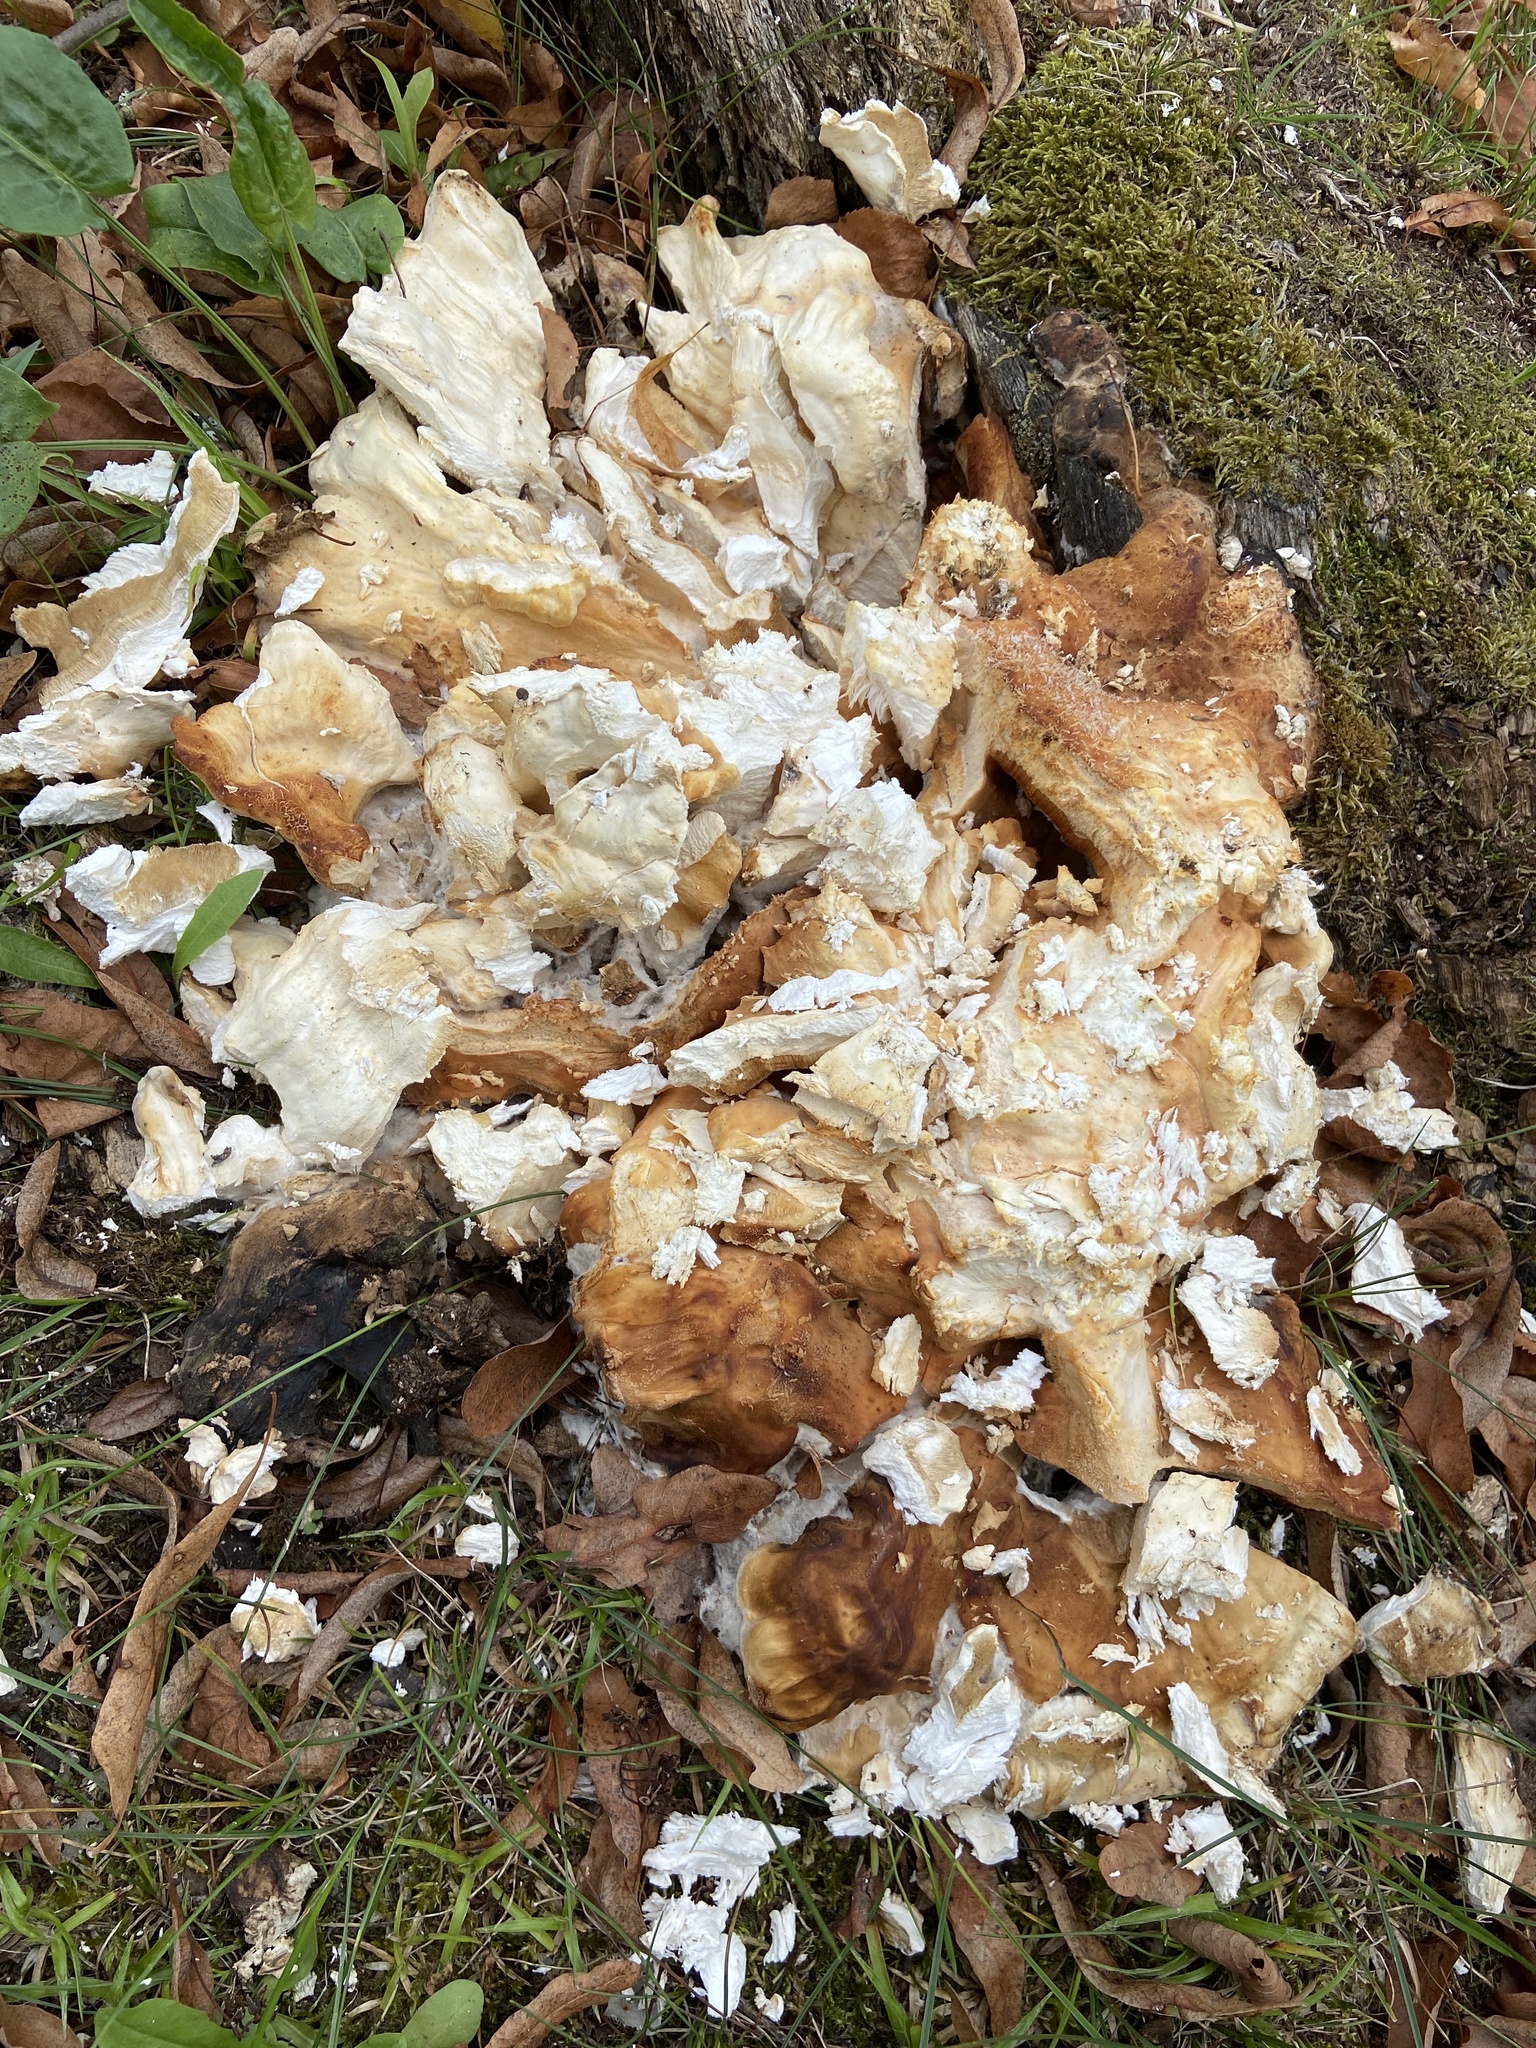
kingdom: Fungi
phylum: Basidiomycota
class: Agaricomycetes
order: Polyporales
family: Laetiporaceae
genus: Laetiporus
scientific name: Laetiporus sulphureus
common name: Chicken of the woods
